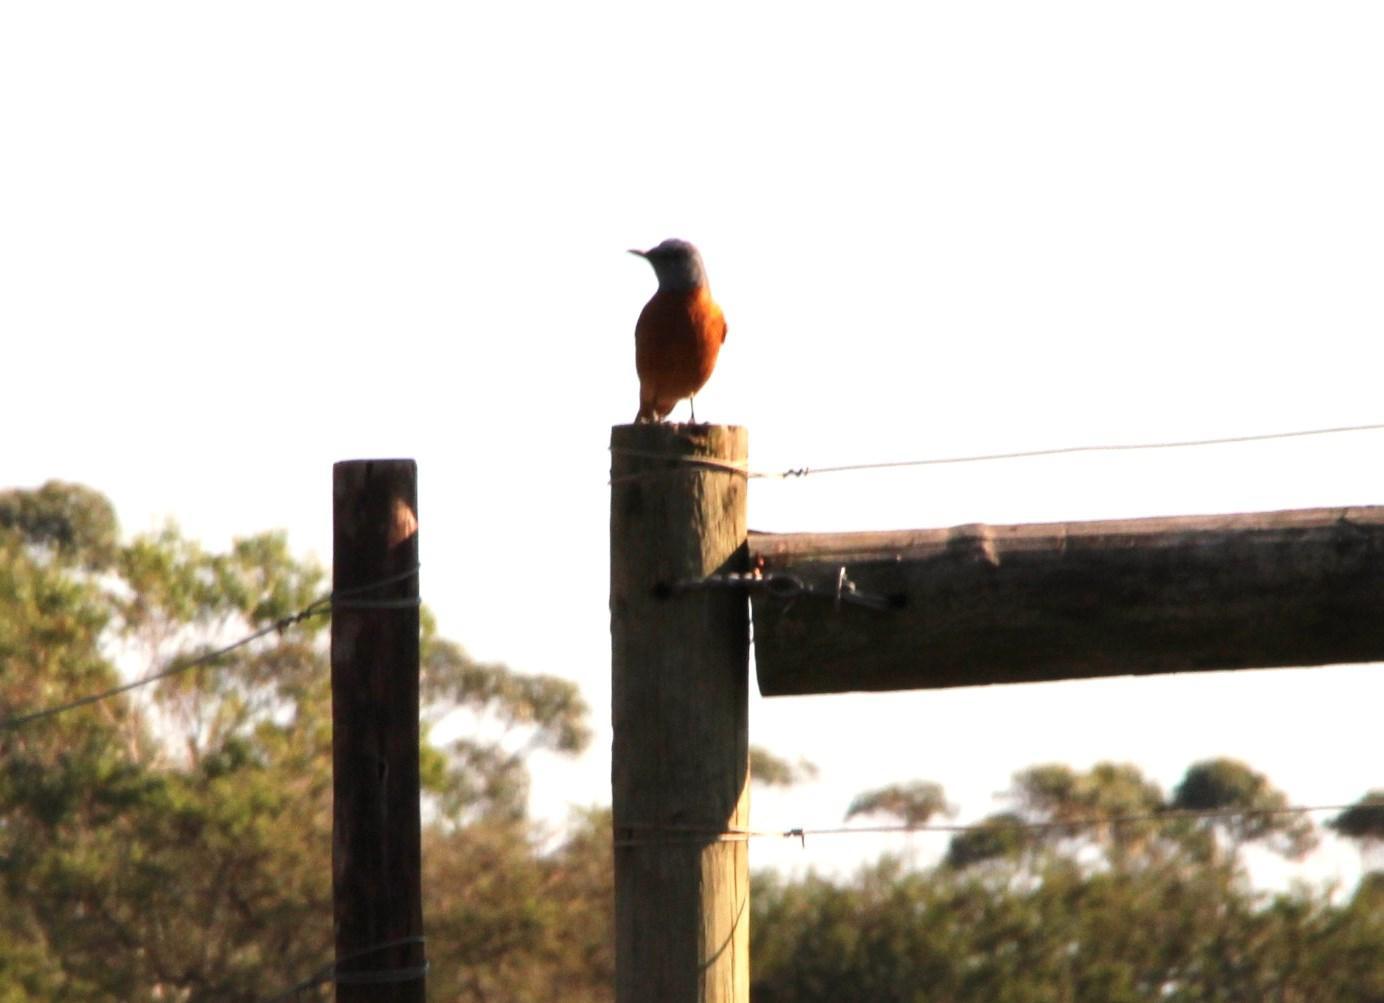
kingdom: Animalia
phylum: Chordata
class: Aves
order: Passeriformes
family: Muscicapidae
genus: Monticola
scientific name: Monticola rupestris
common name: Cape rock thrush
